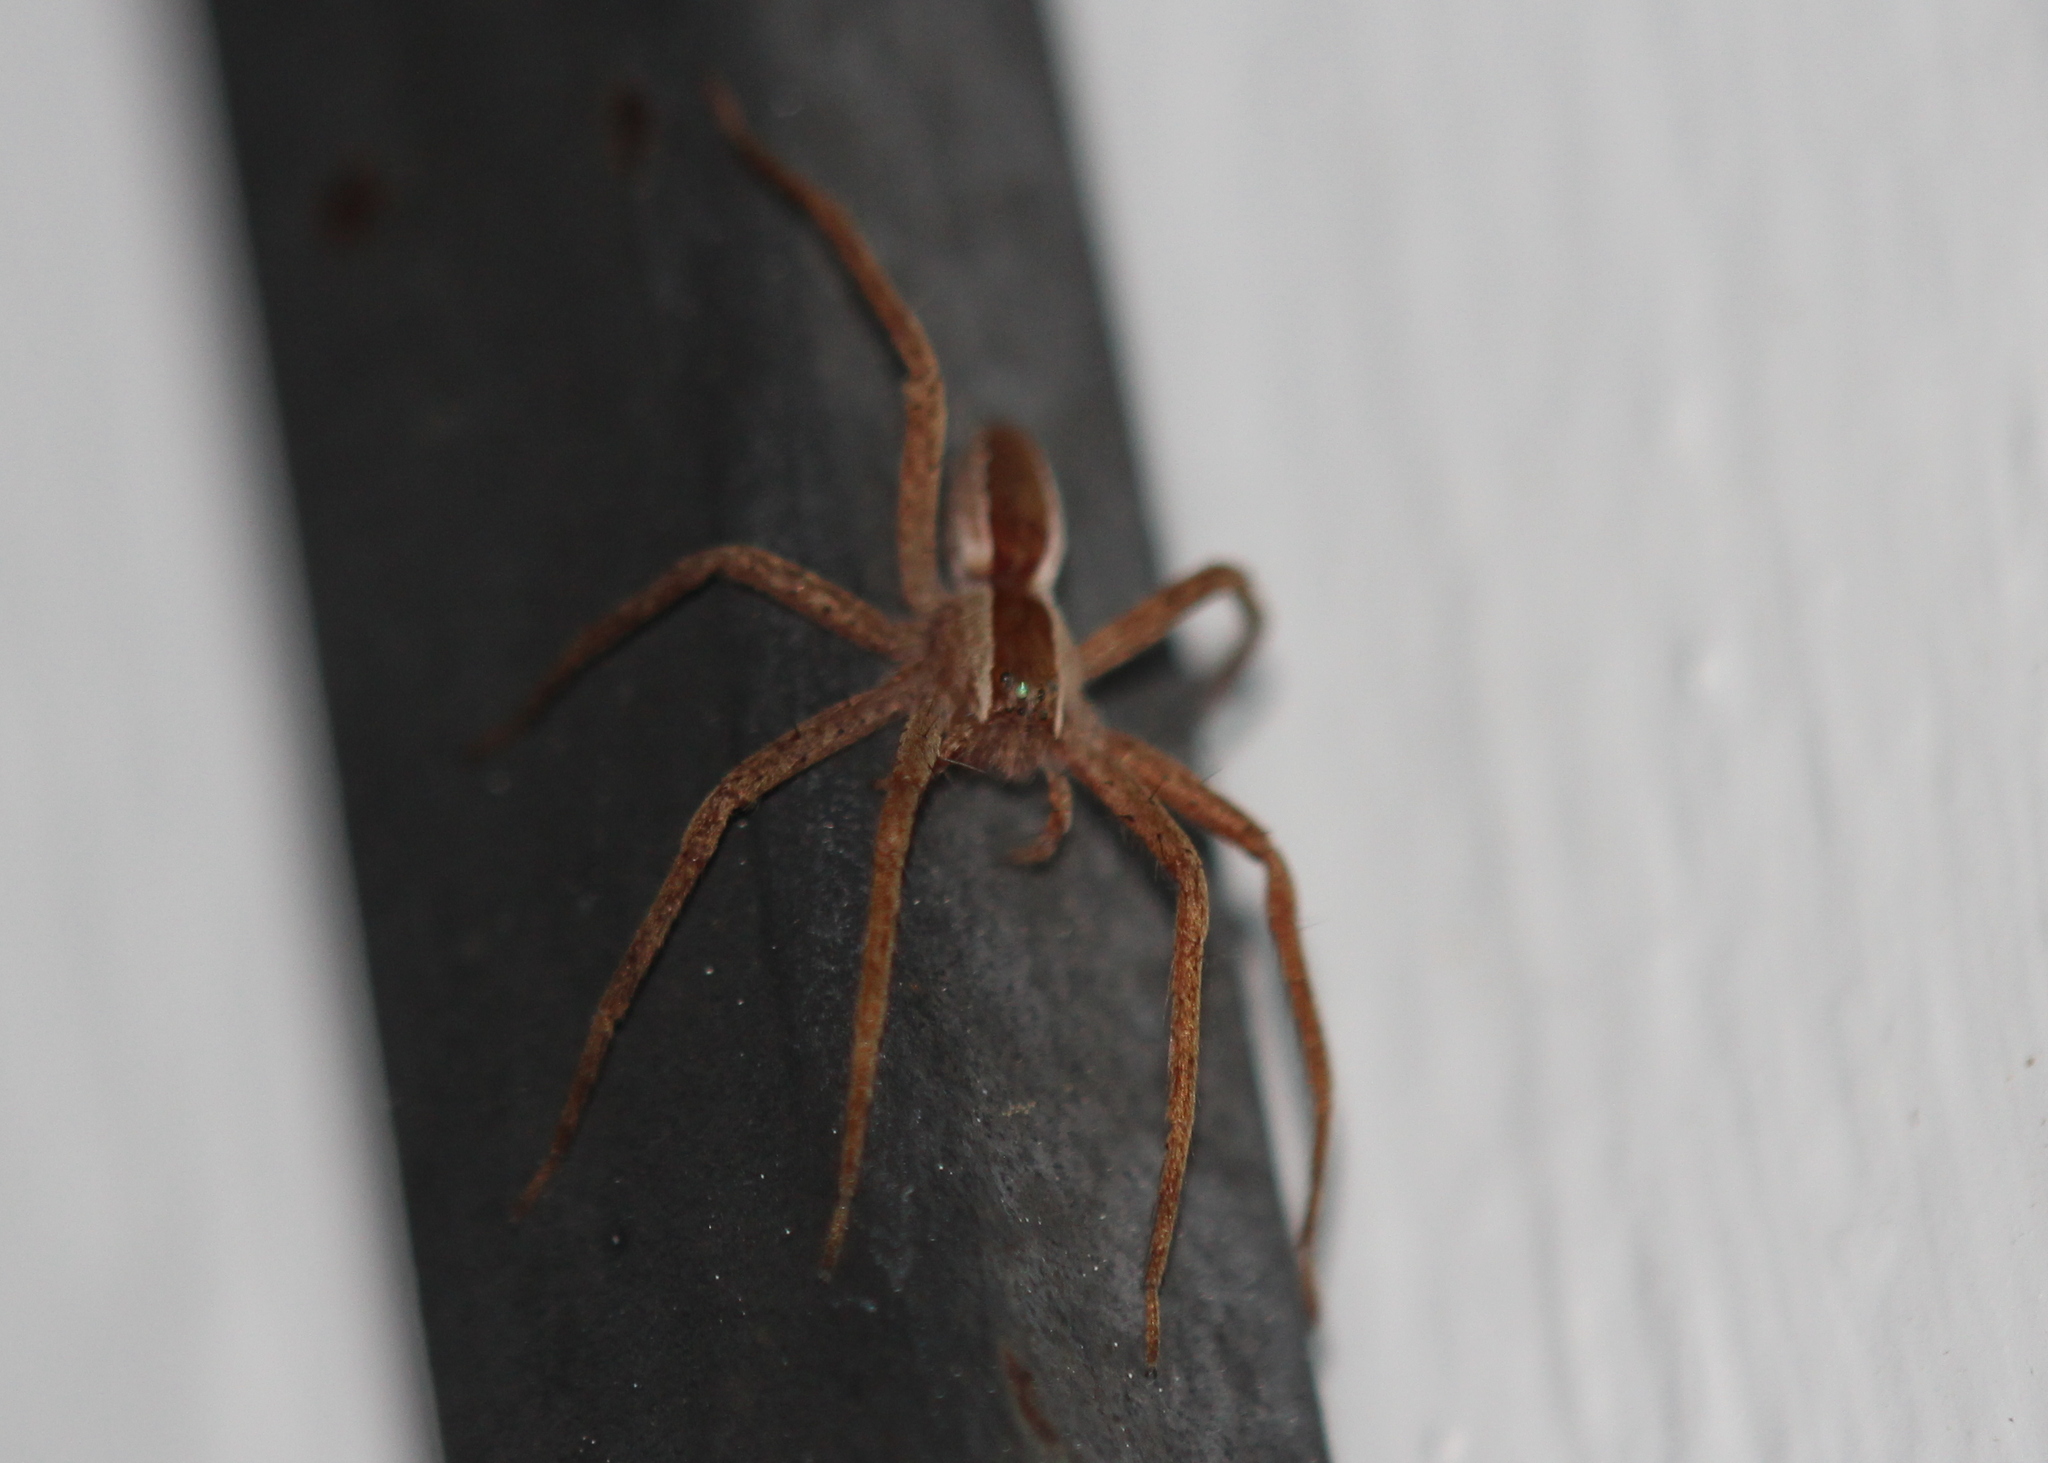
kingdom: Animalia
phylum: Arthropoda
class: Arachnida
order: Araneae
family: Pisauridae
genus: Pisaurina
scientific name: Pisaurina mira
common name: American nursery web spider
